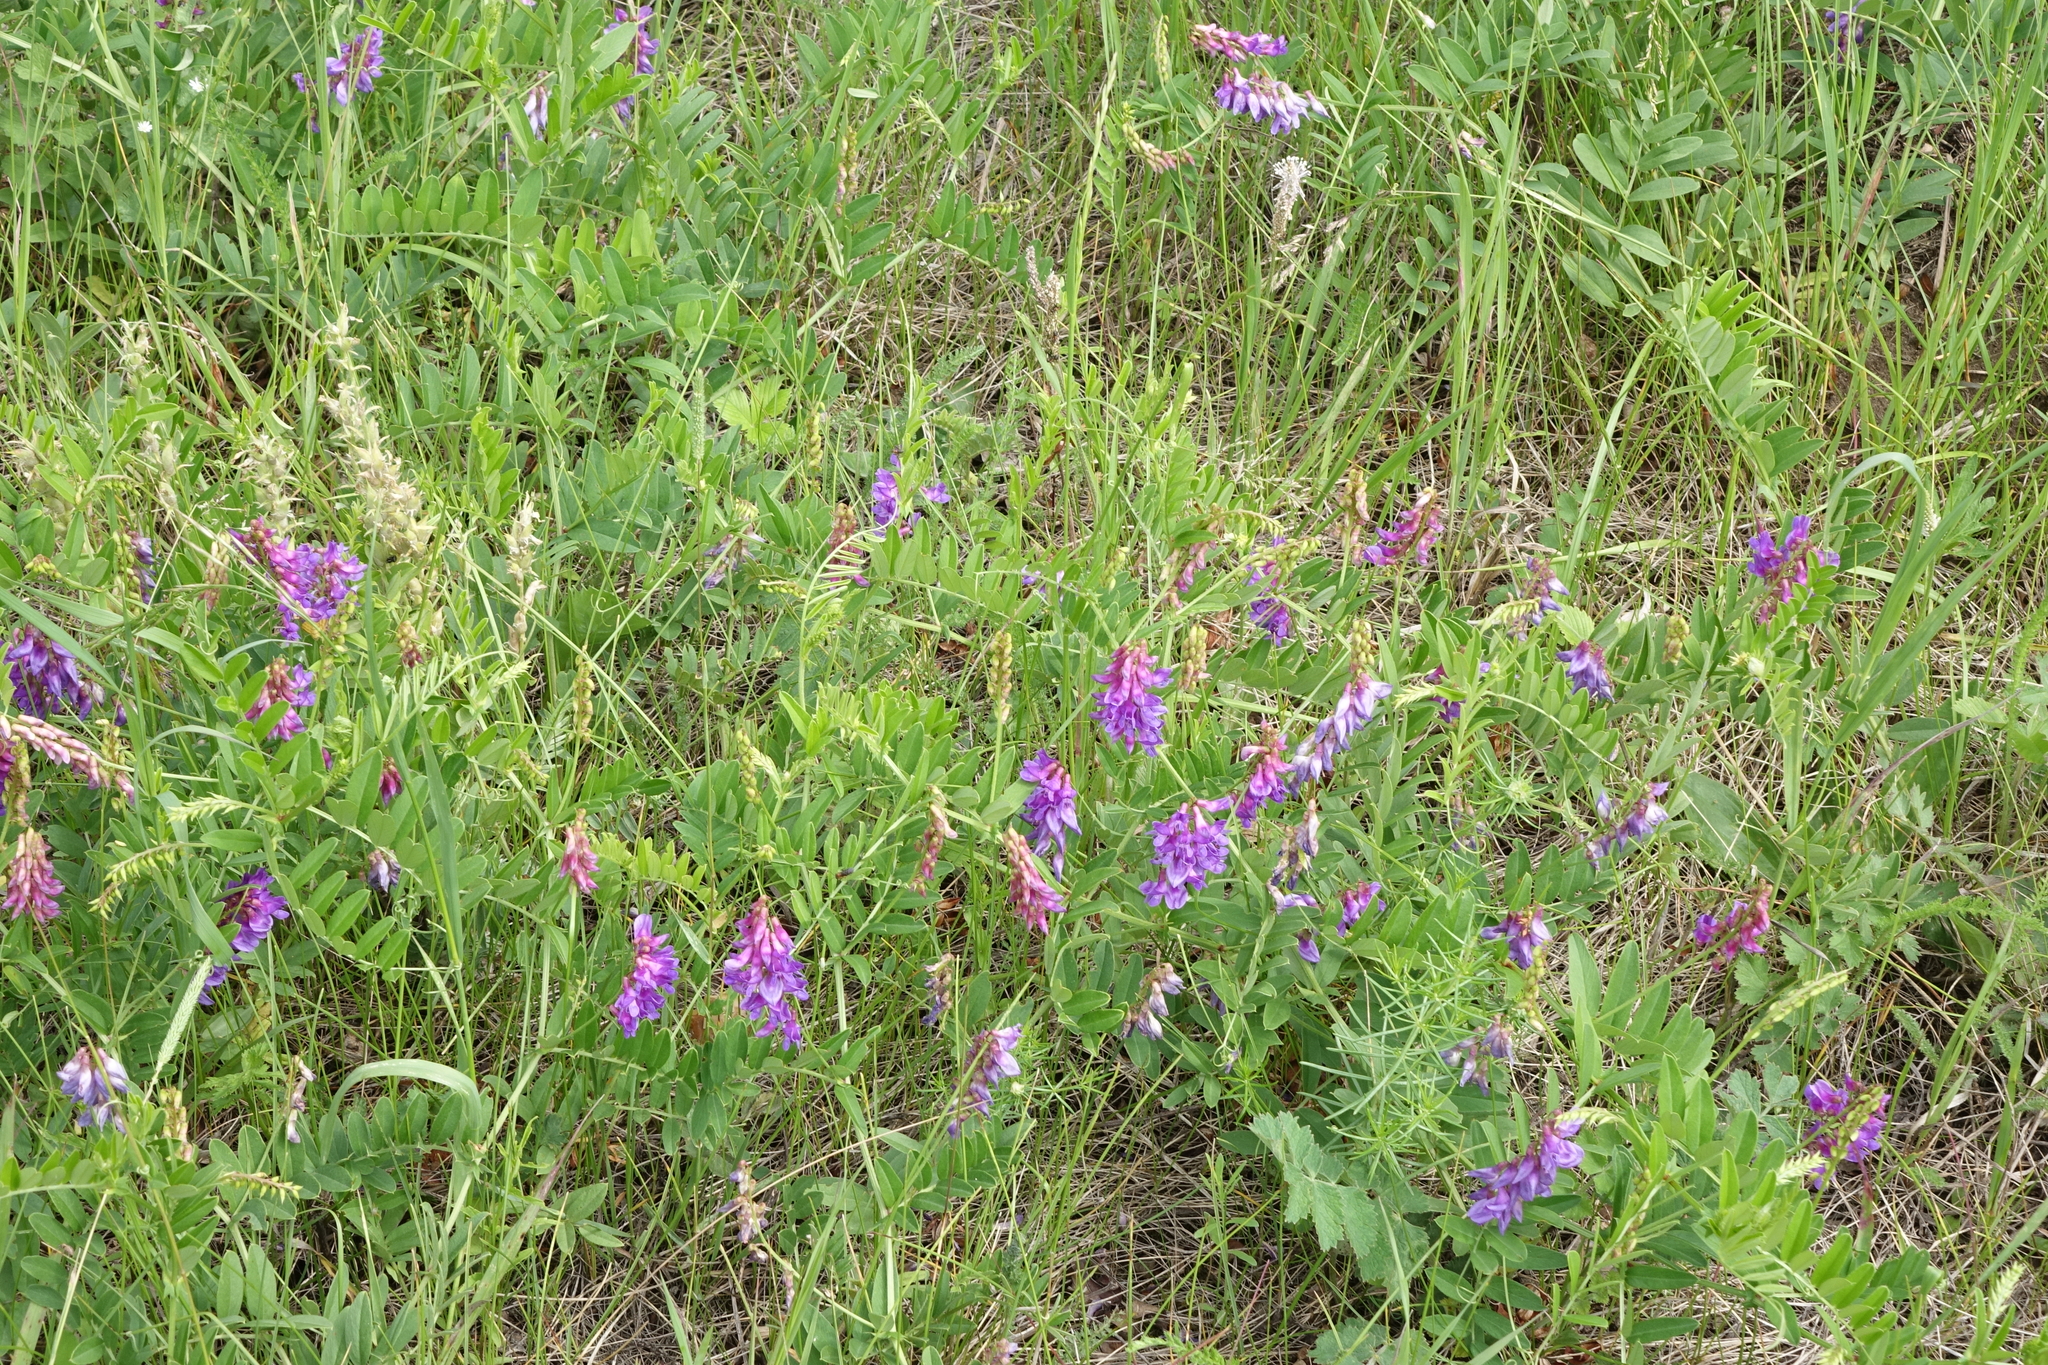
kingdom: Plantae
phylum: Tracheophyta
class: Magnoliopsida
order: Fabales
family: Fabaceae
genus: Vicia
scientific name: Vicia amoena
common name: Cheder ebs
